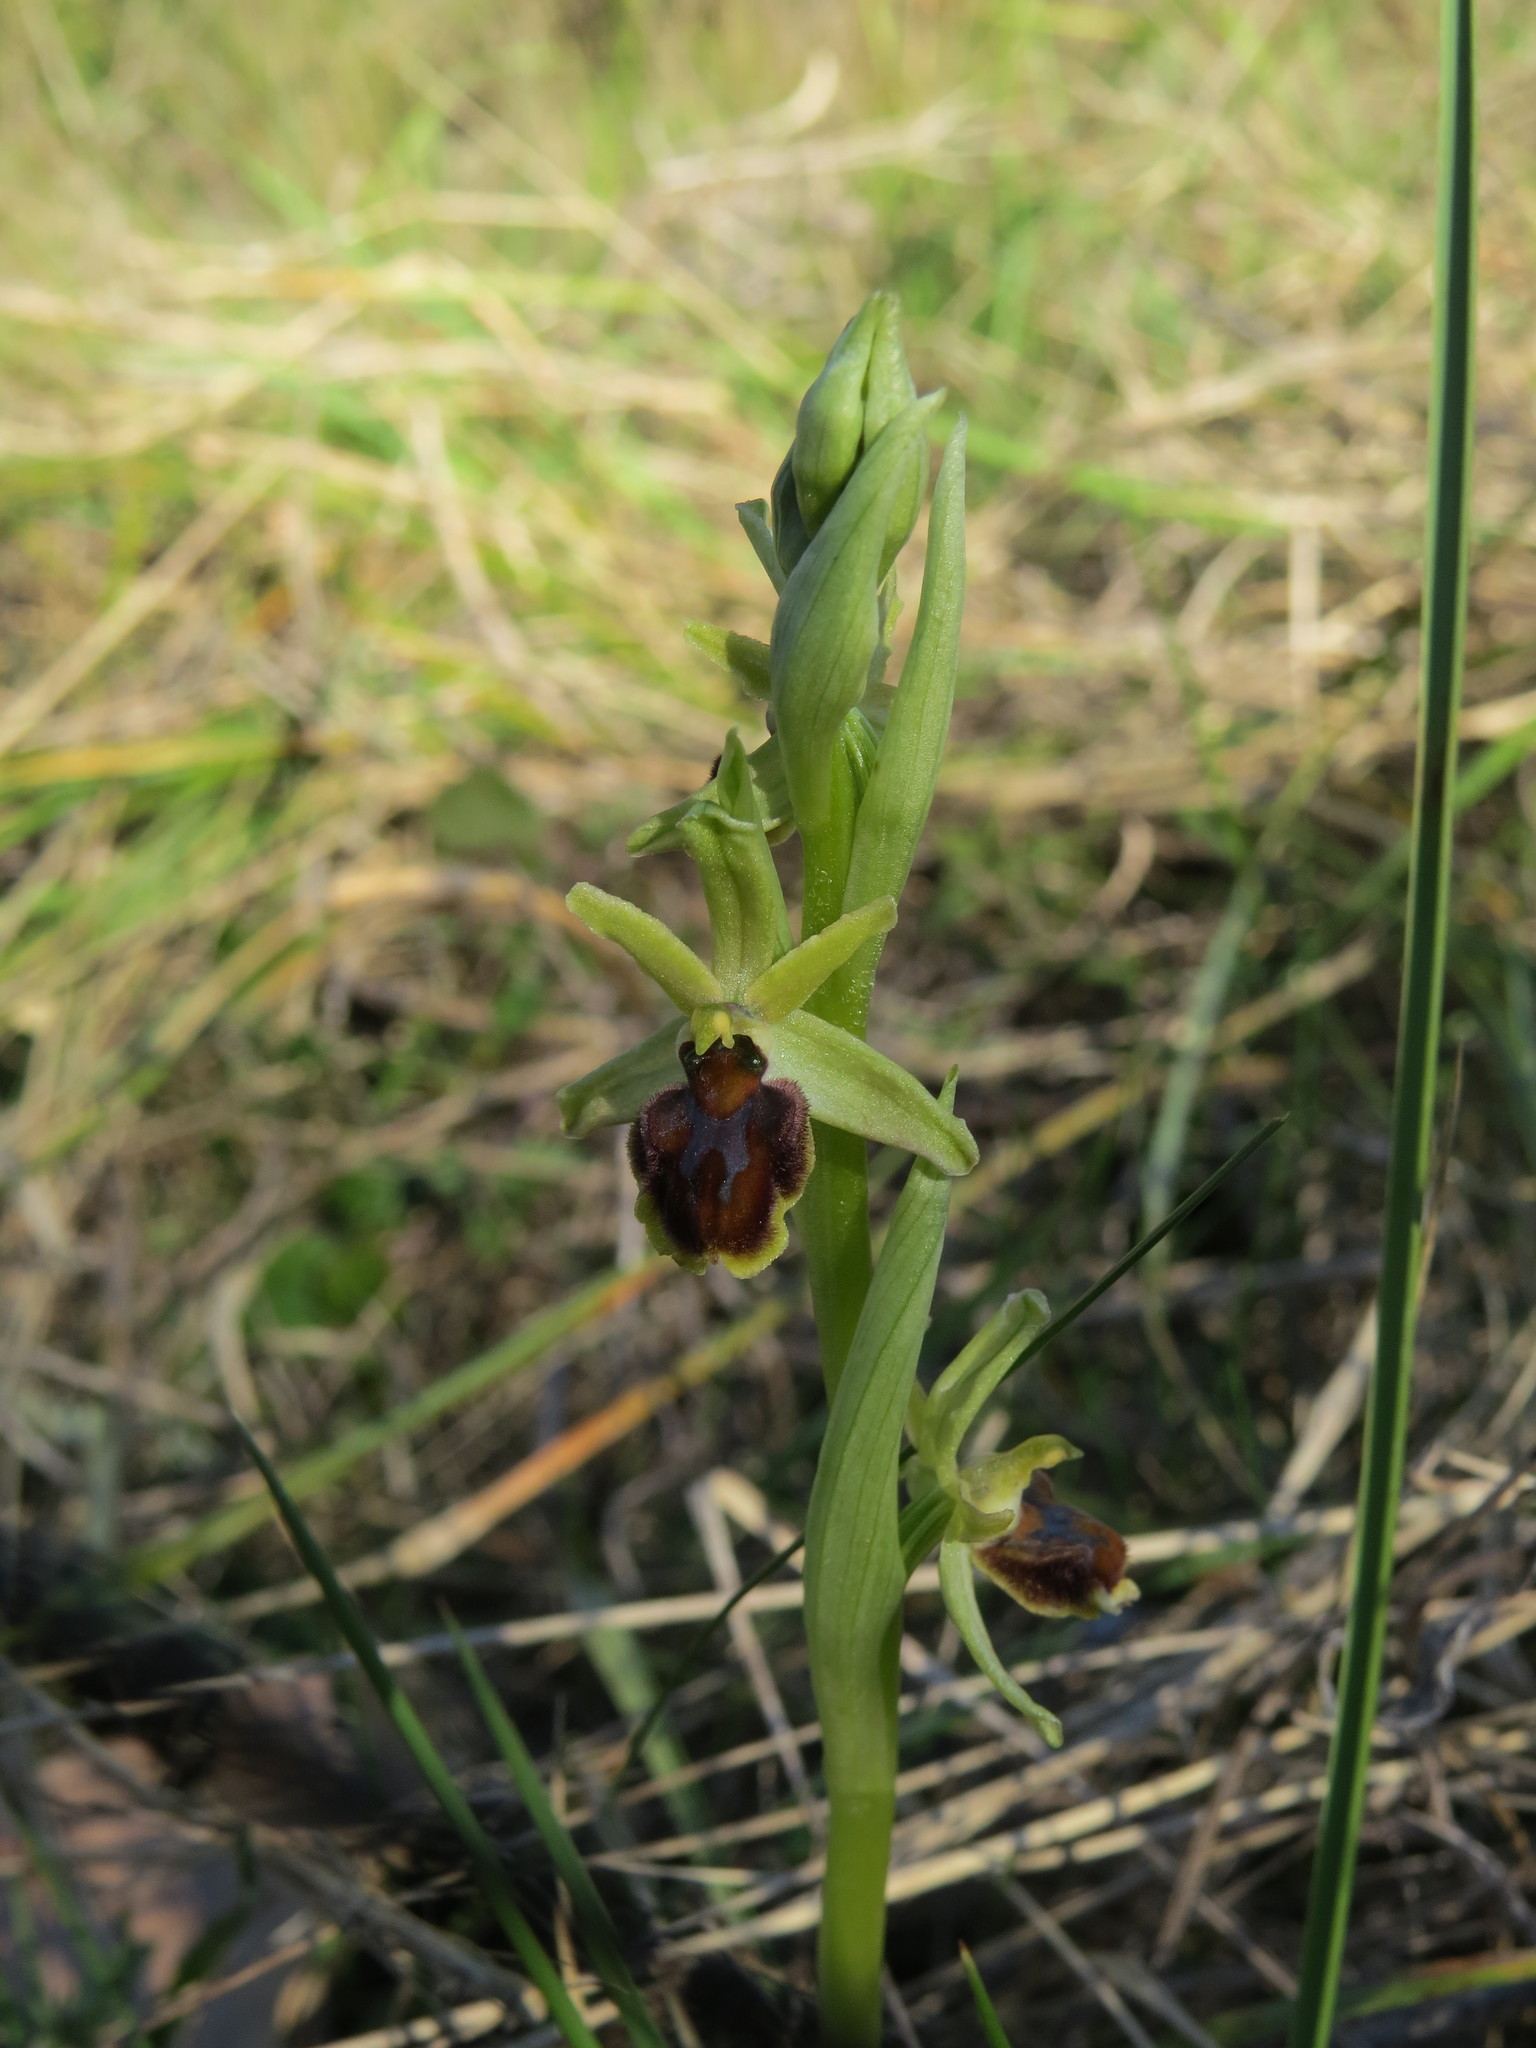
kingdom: Plantae
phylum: Tracheophyta
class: Liliopsida
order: Asparagales
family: Orchidaceae
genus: Ophrys
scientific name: Ophrys sphegodes
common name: Early spider-orchid
